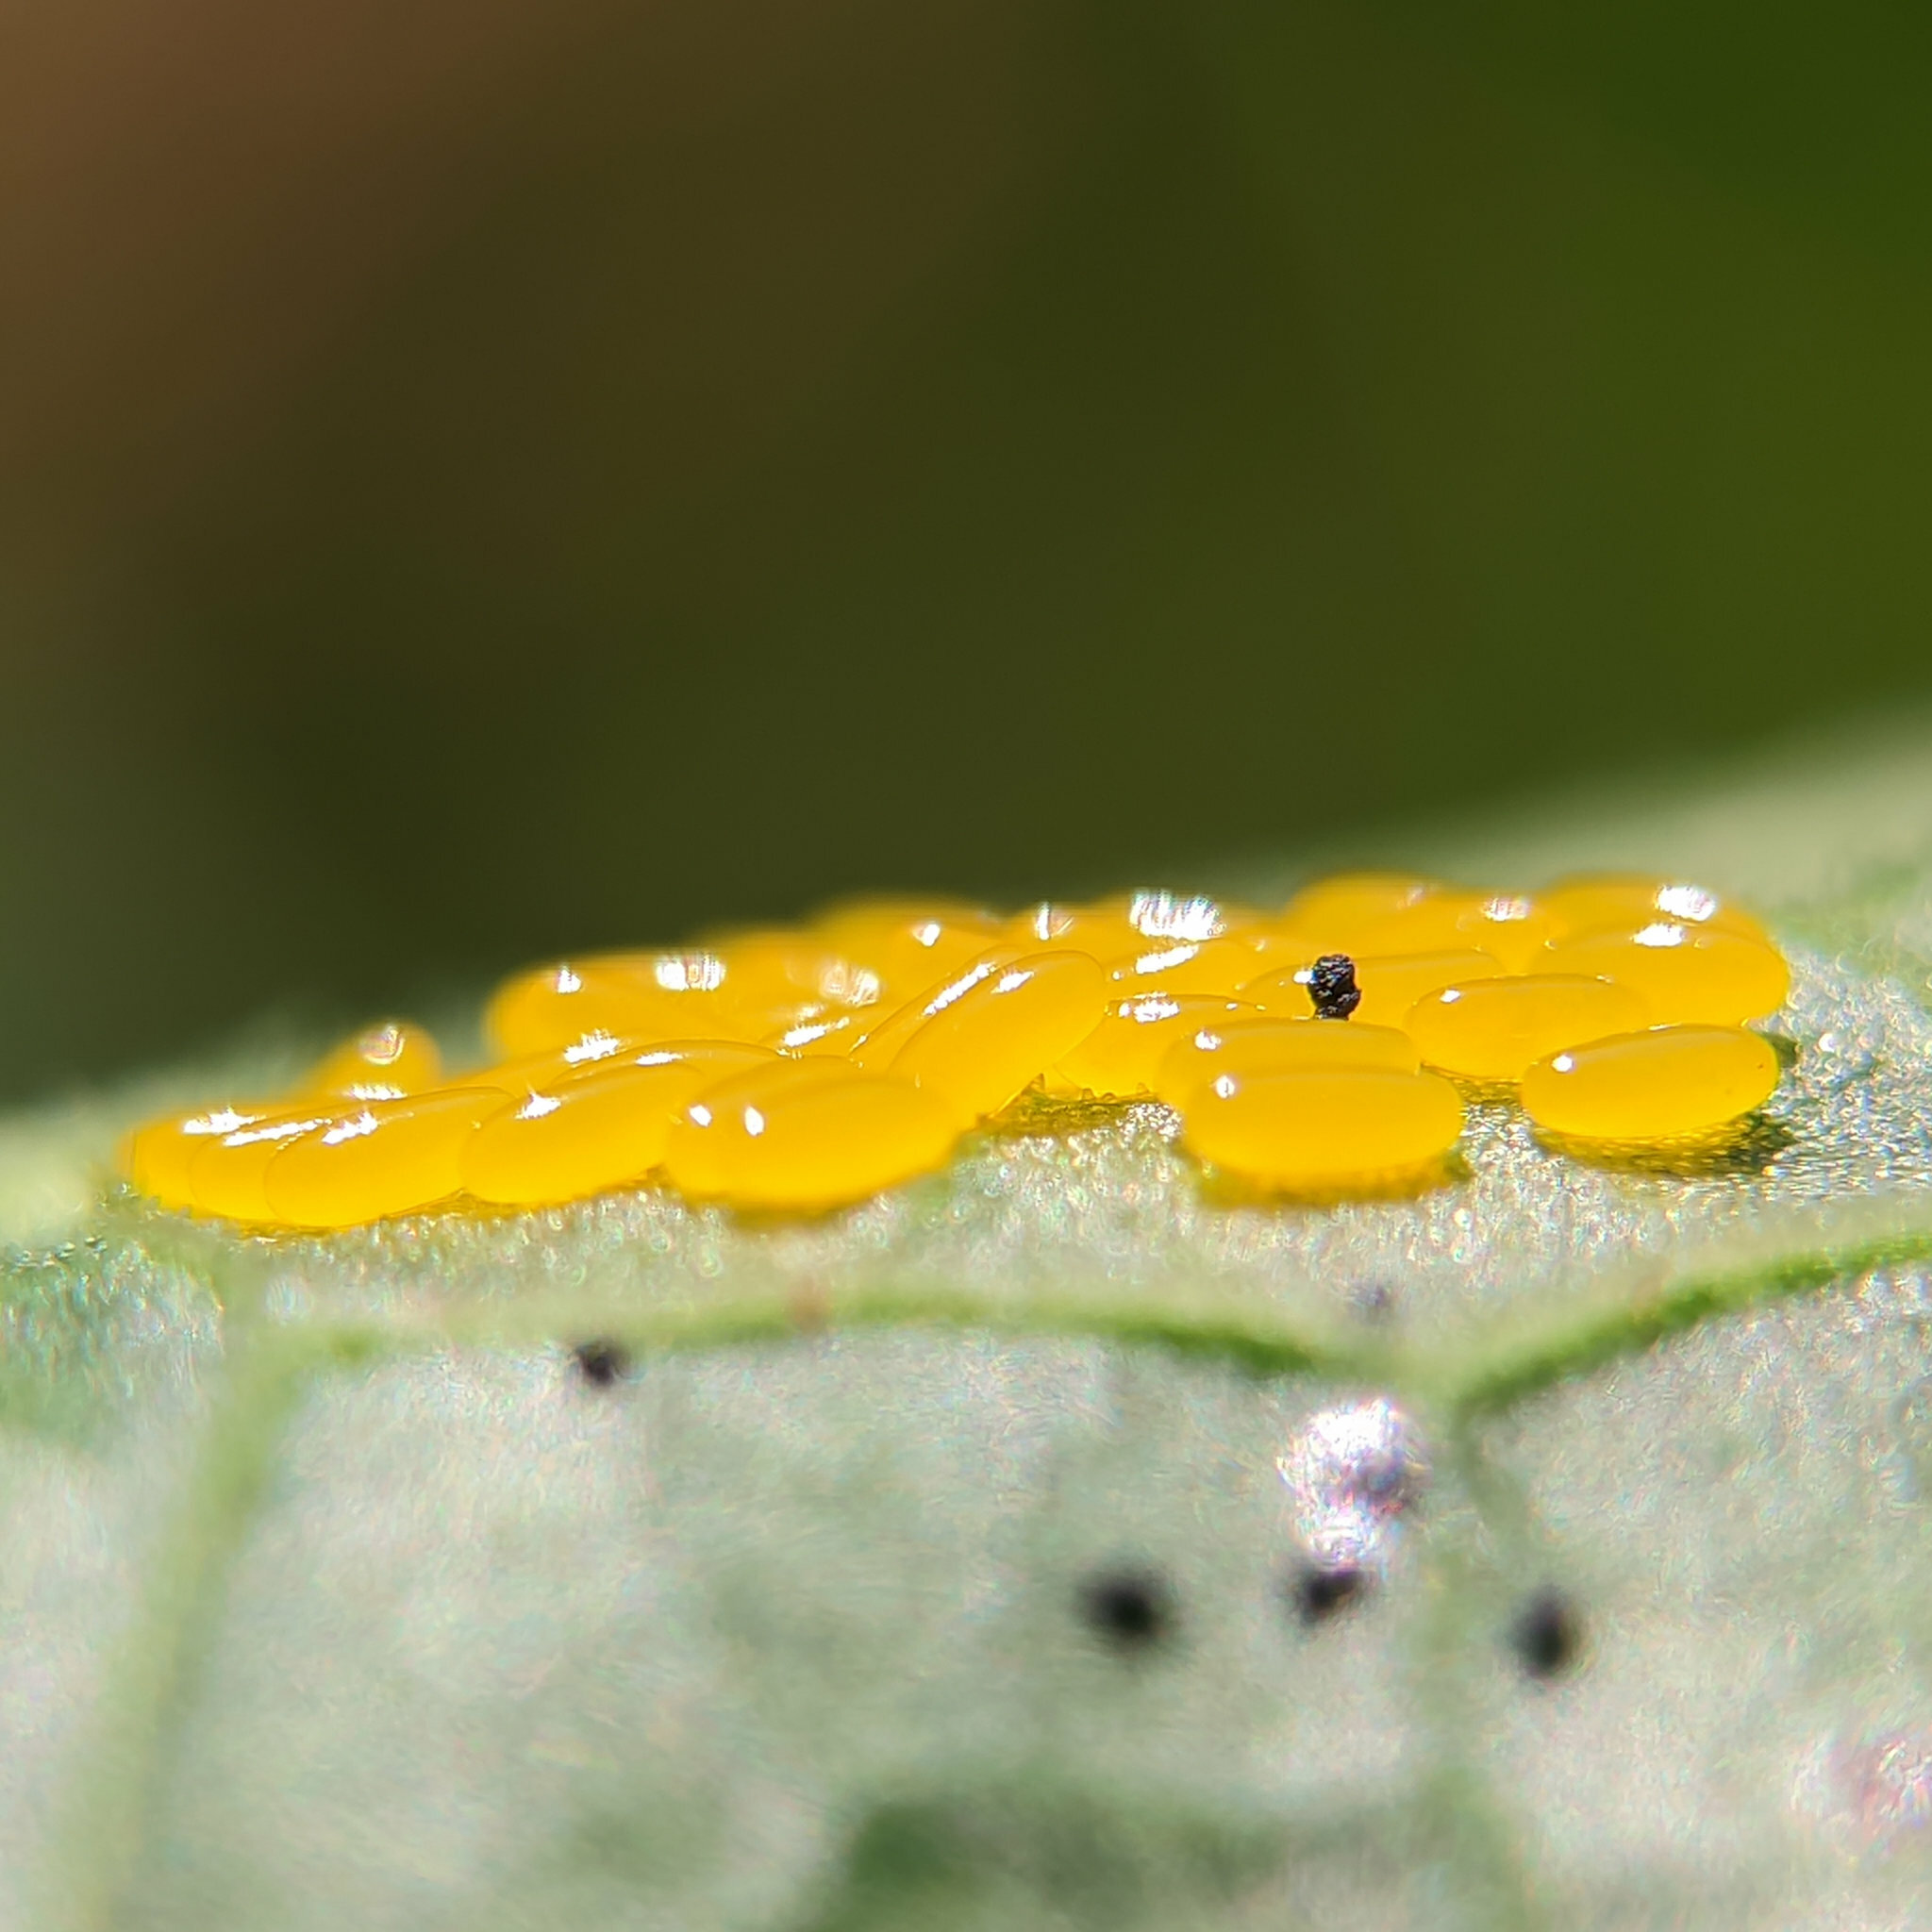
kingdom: Animalia
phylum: Arthropoda
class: Insecta
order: Coleoptera
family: Chrysomelidae
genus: Gastrophysa
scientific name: Gastrophysa viridula
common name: Green dock beetle
